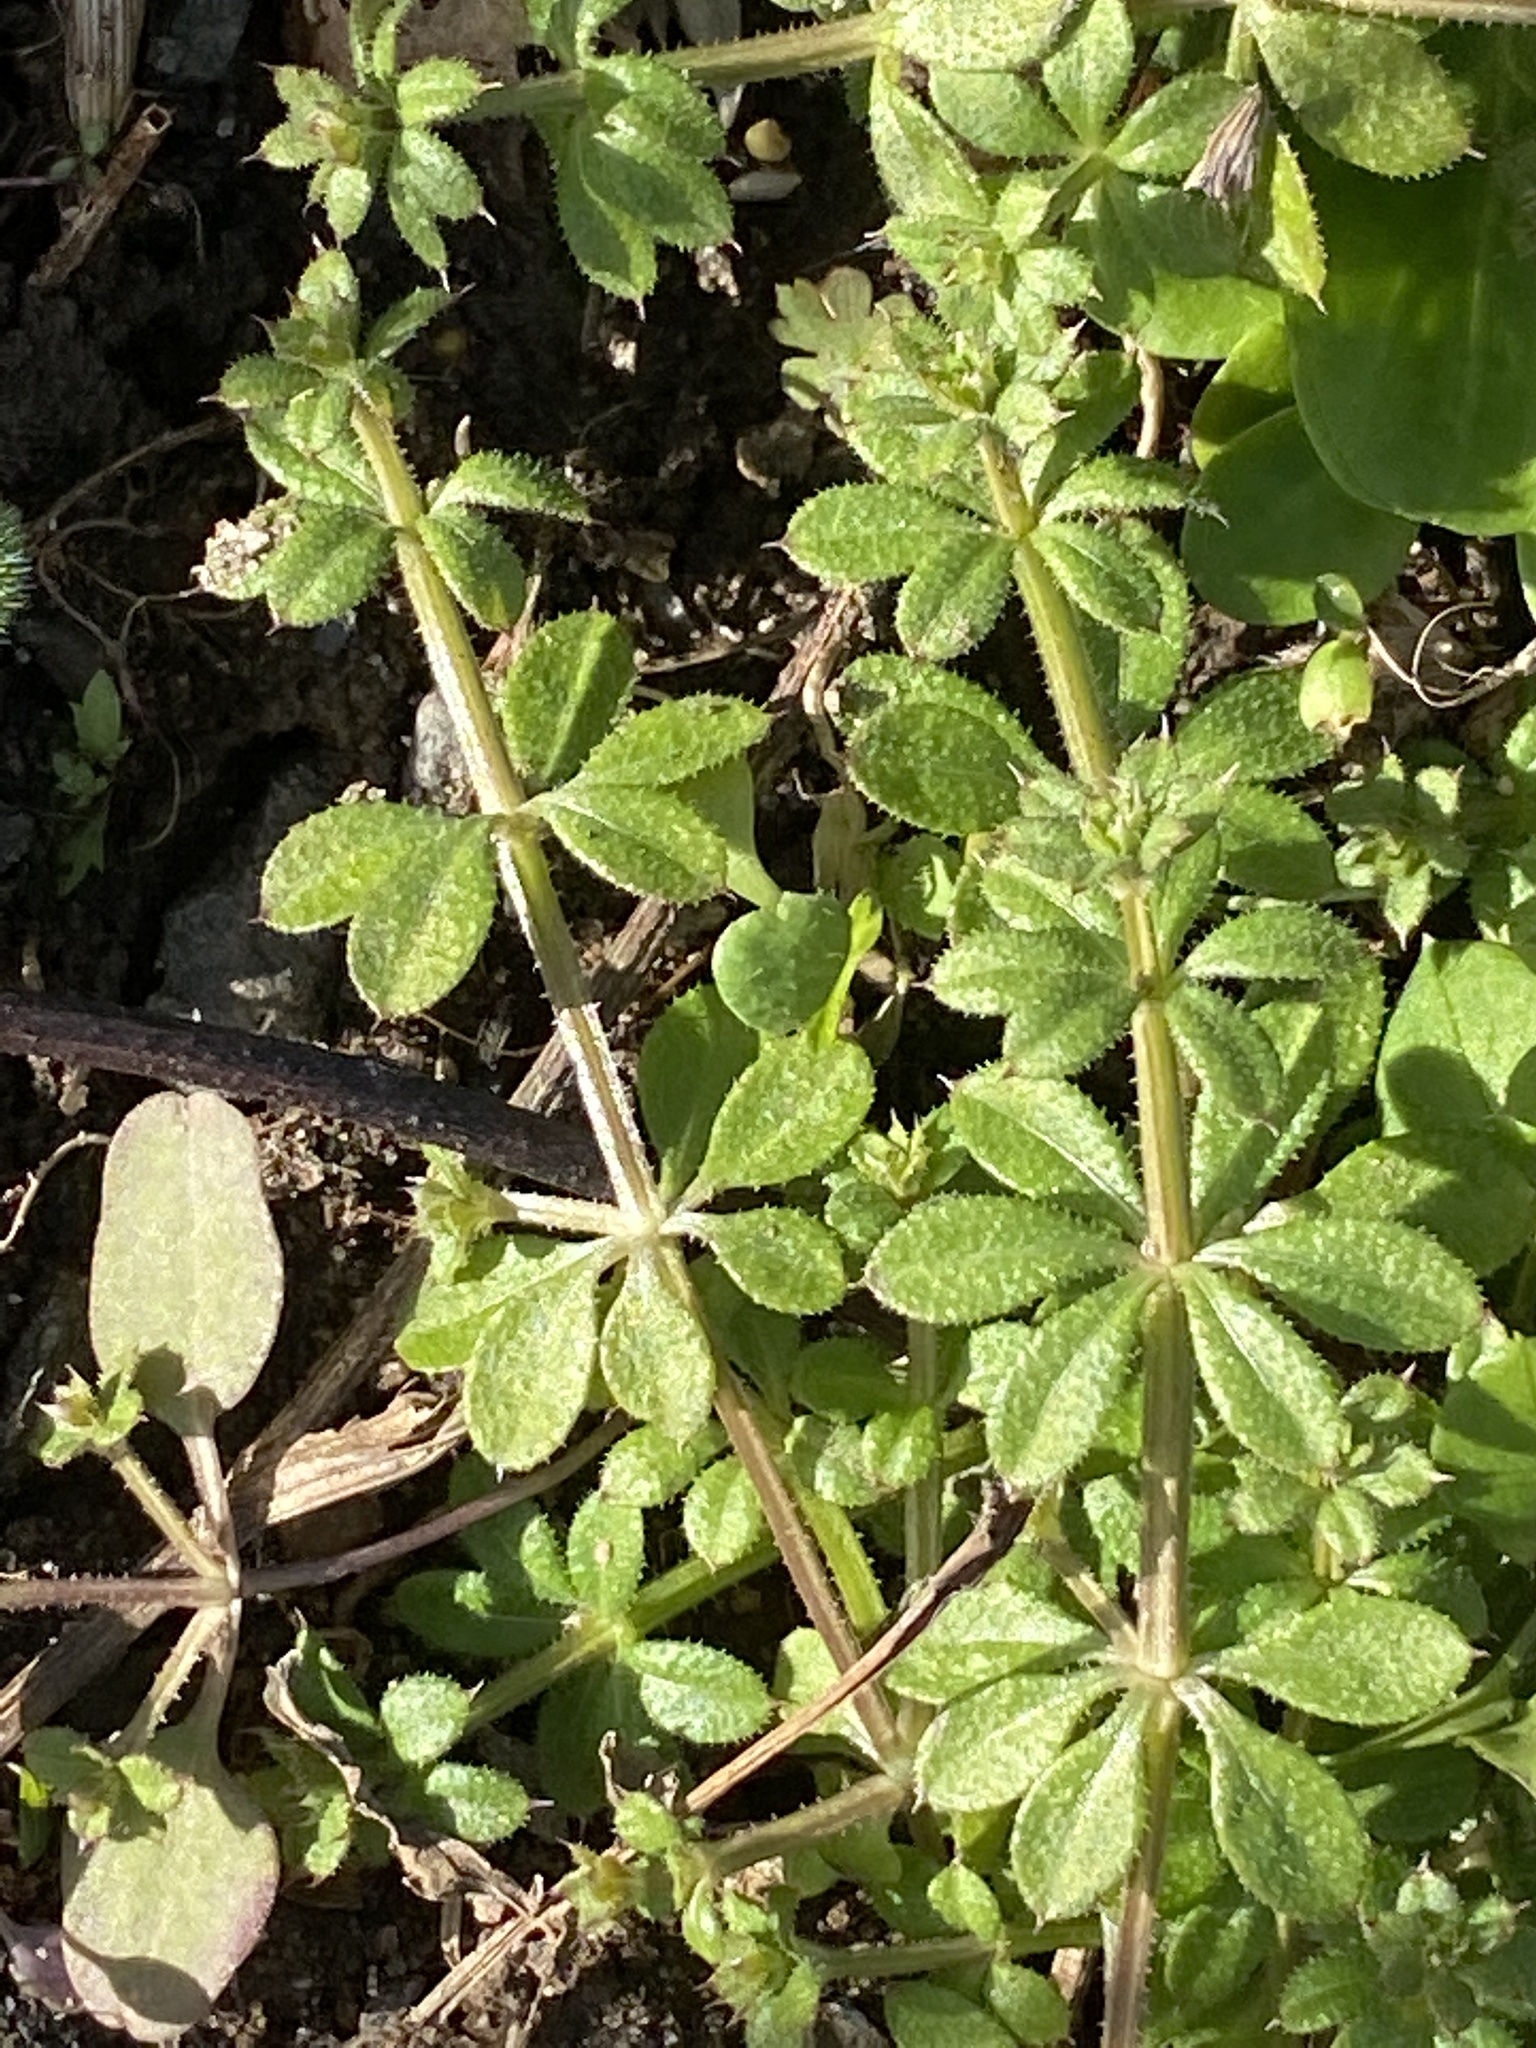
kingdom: Plantae
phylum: Tracheophyta
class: Magnoliopsida
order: Gentianales
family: Rubiaceae
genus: Galium
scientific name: Galium aparine
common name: Cleavers
